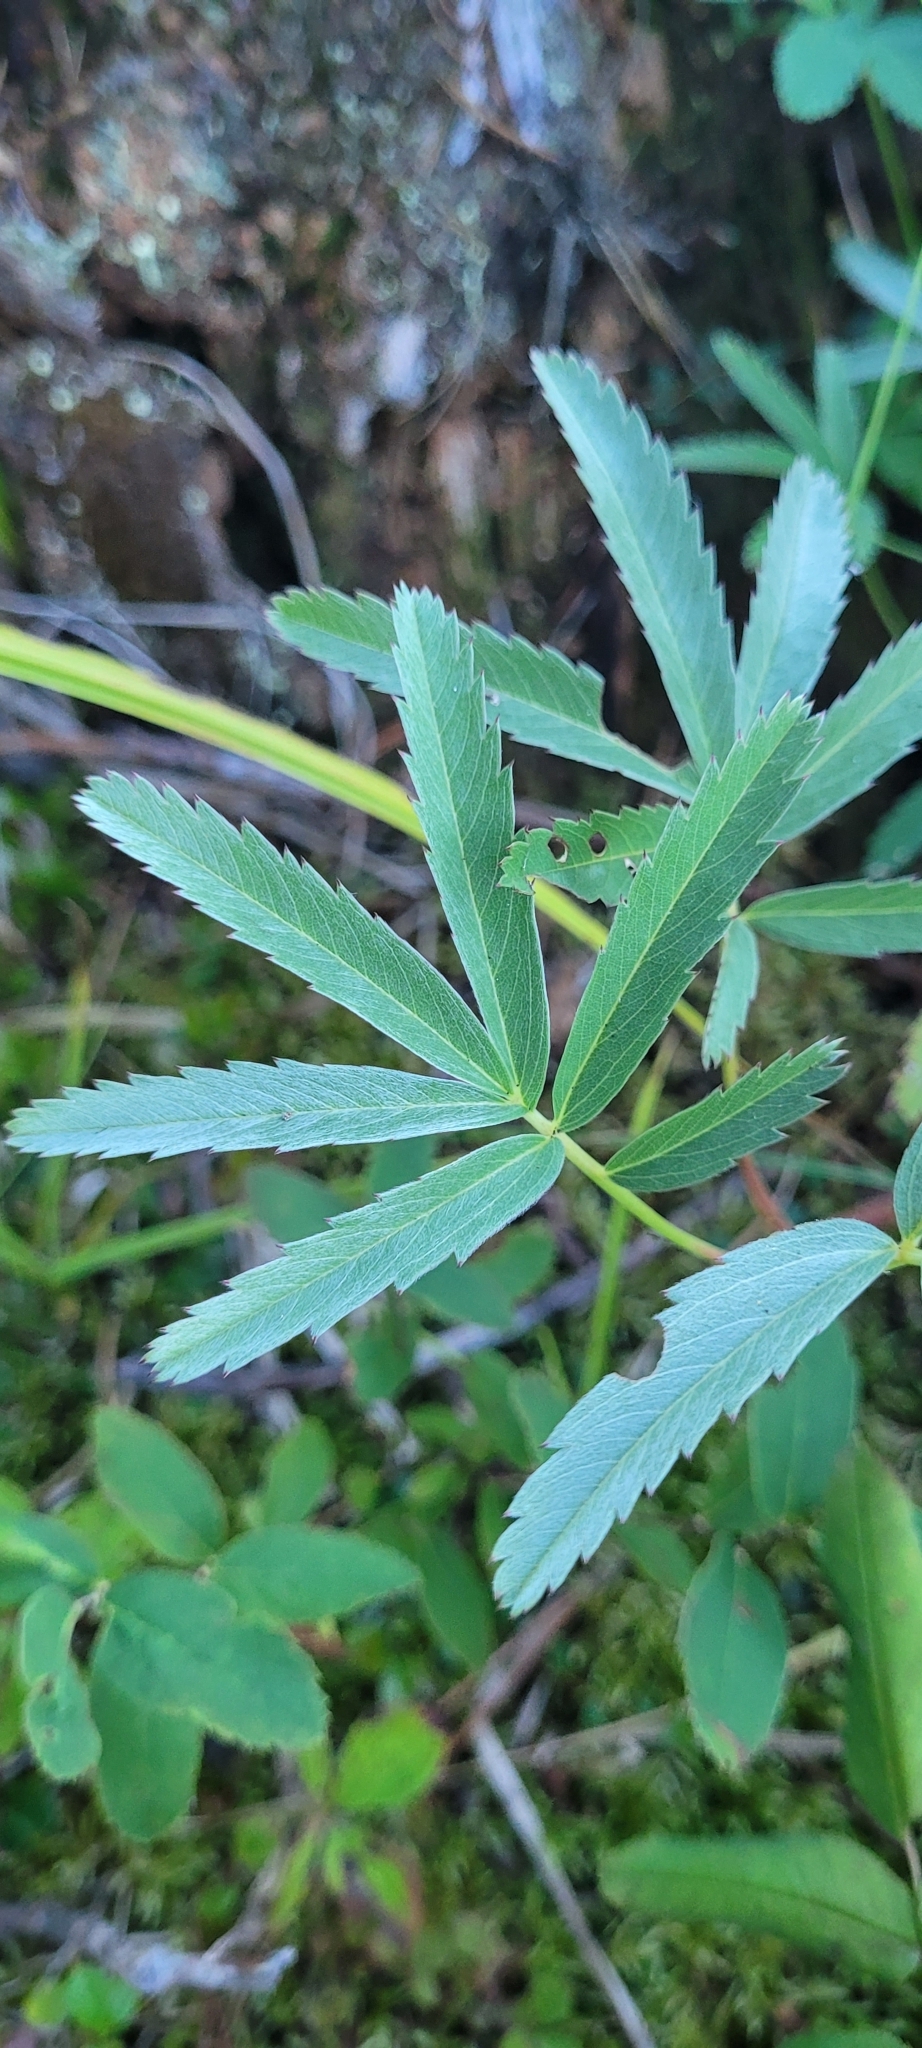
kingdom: Plantae
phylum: Tracheophyta
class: Magnoliopsida
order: Rosales
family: Rosaceae
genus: Comarum
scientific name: Comarum palustre
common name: Marsh cinquefoil
